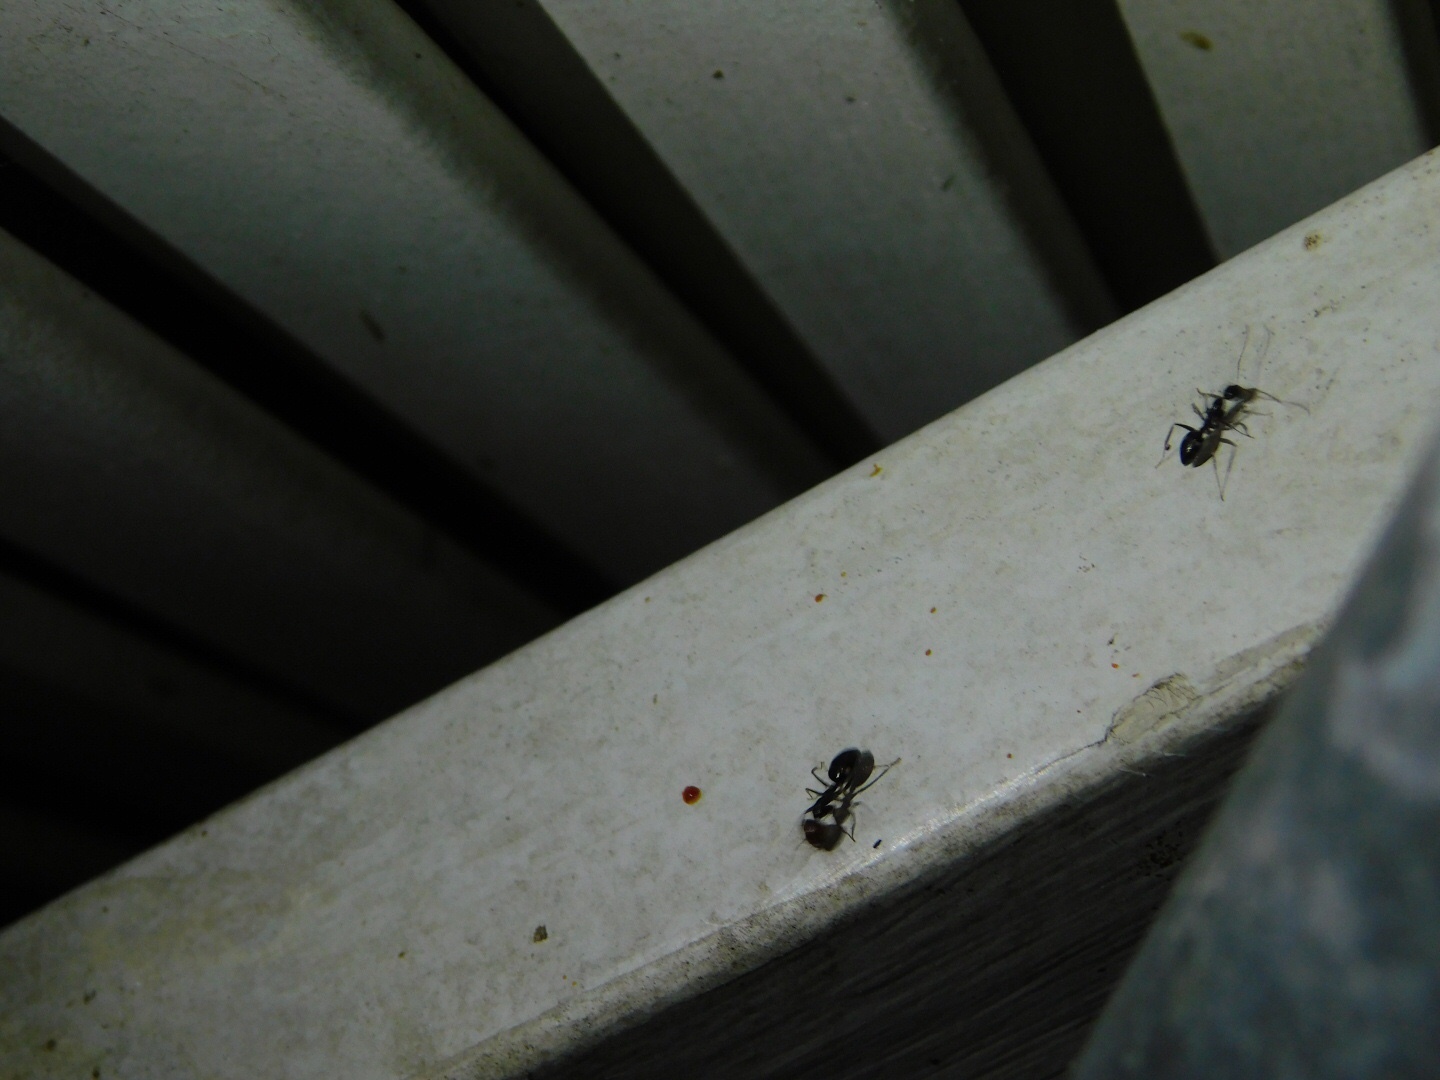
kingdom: Animalia
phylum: Arthropoda
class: Insecta
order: Hymenoptera
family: Formicidae
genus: Camponotus
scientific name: Camponotus sexguttatus
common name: Neotropical carpenter ant
